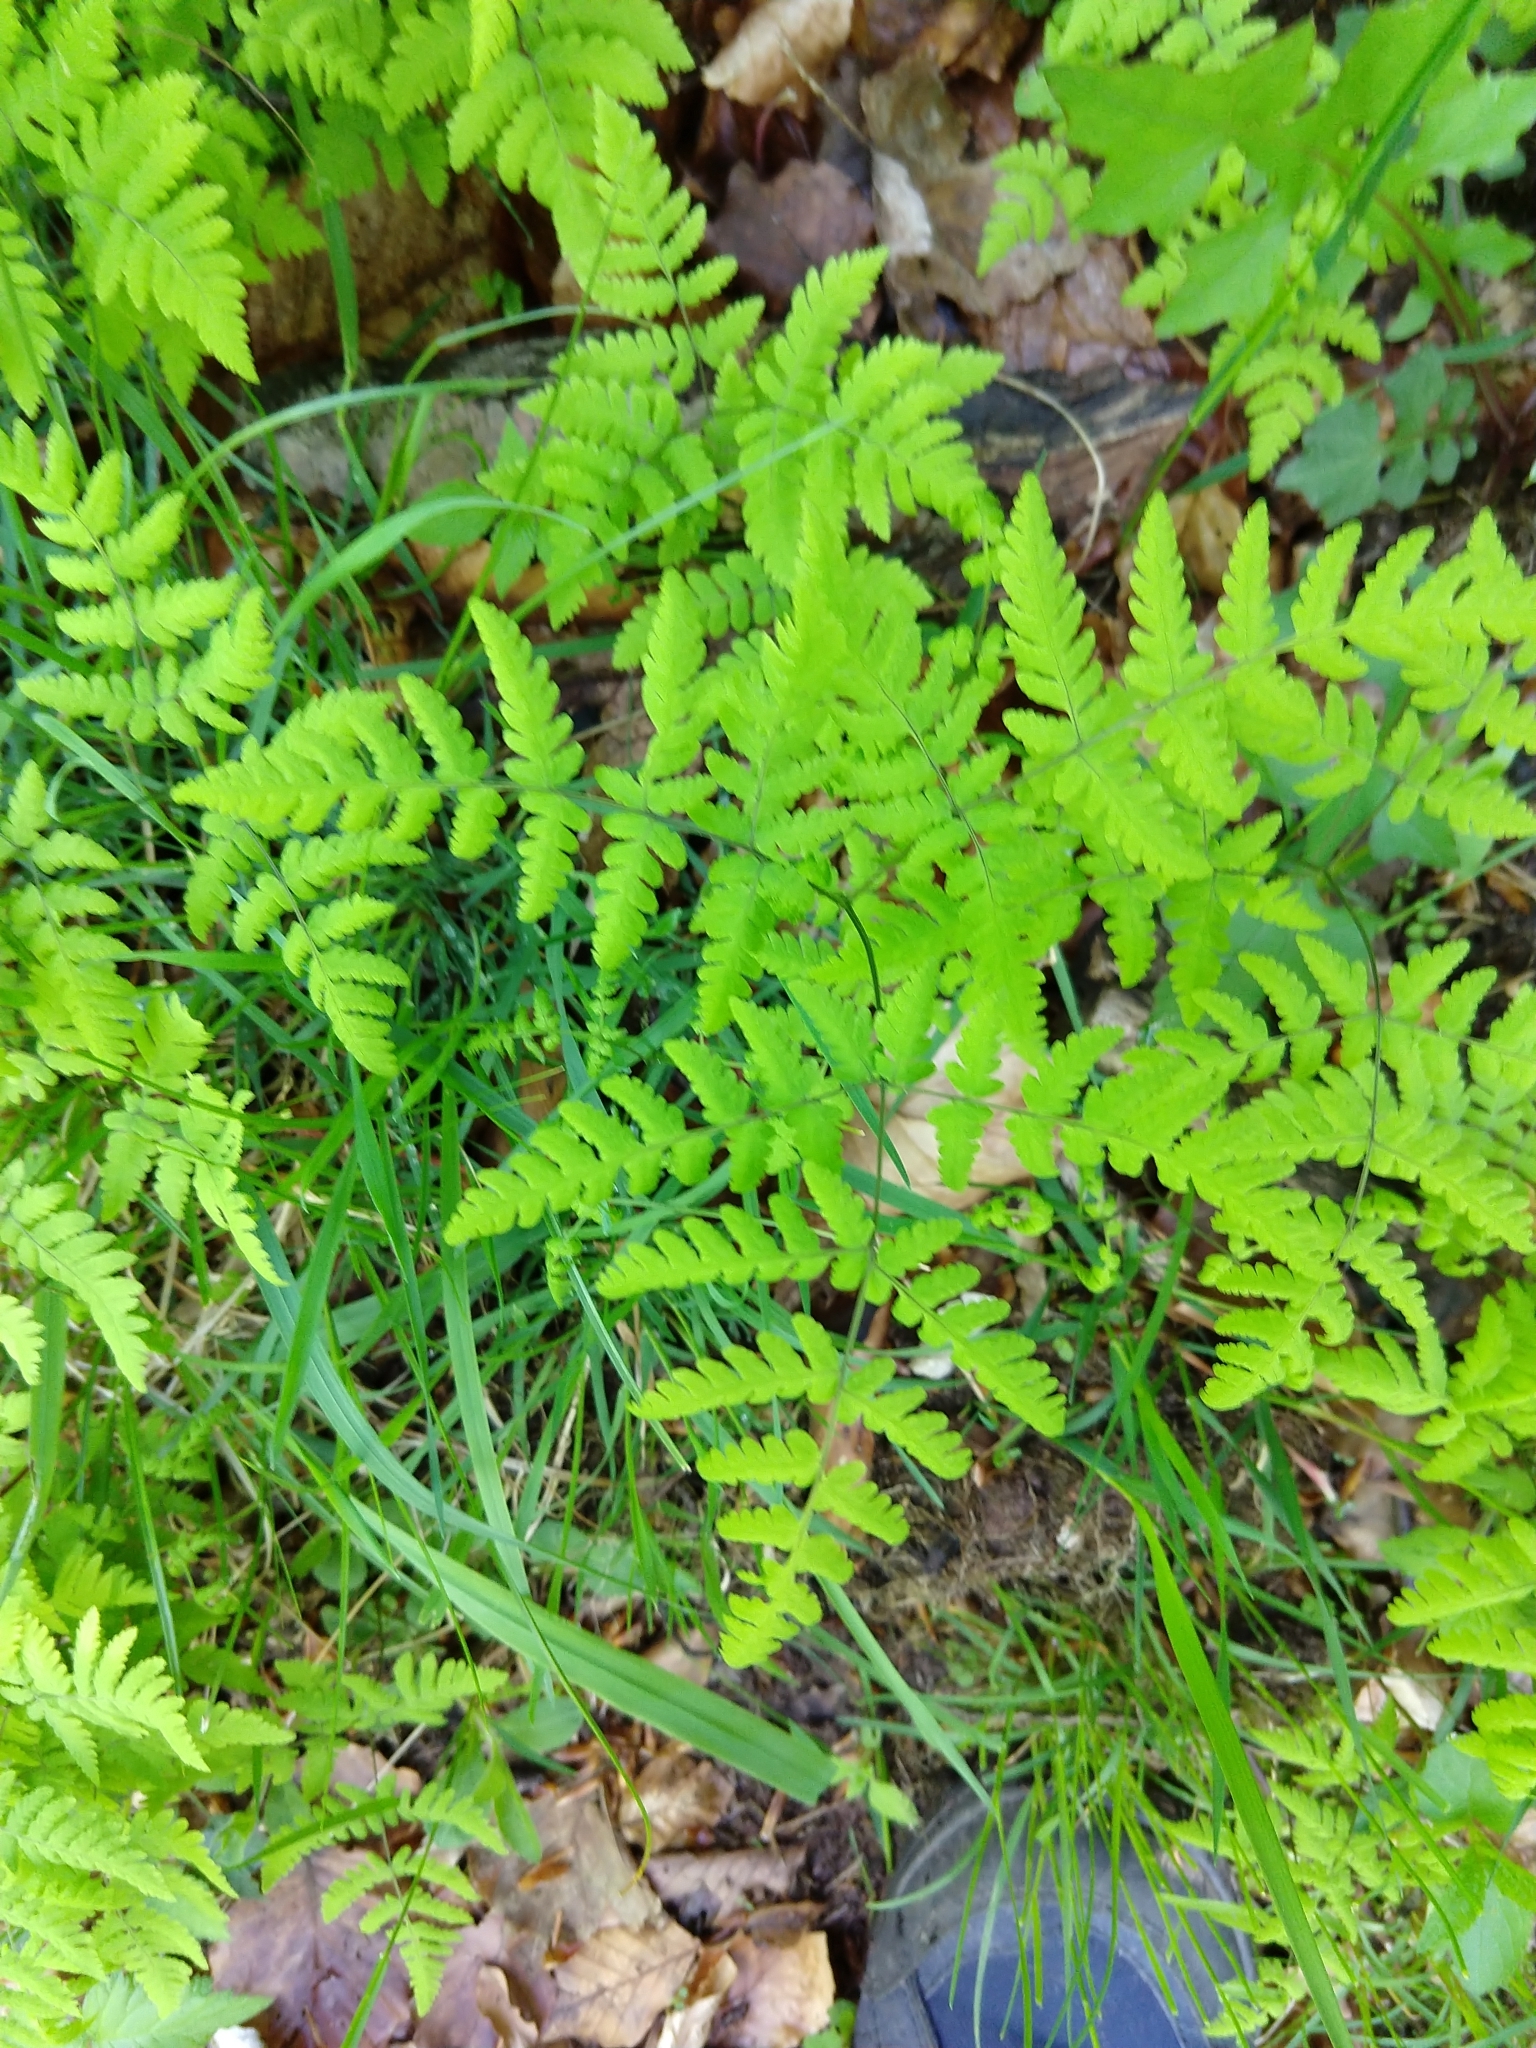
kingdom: Plantae
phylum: Tracheophyta
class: Polypodiopsida
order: Polypodiales
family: Cystopteridaceae
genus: Gymnocarpium
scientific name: Gymnocarpium dryopteris
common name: Oak fern
